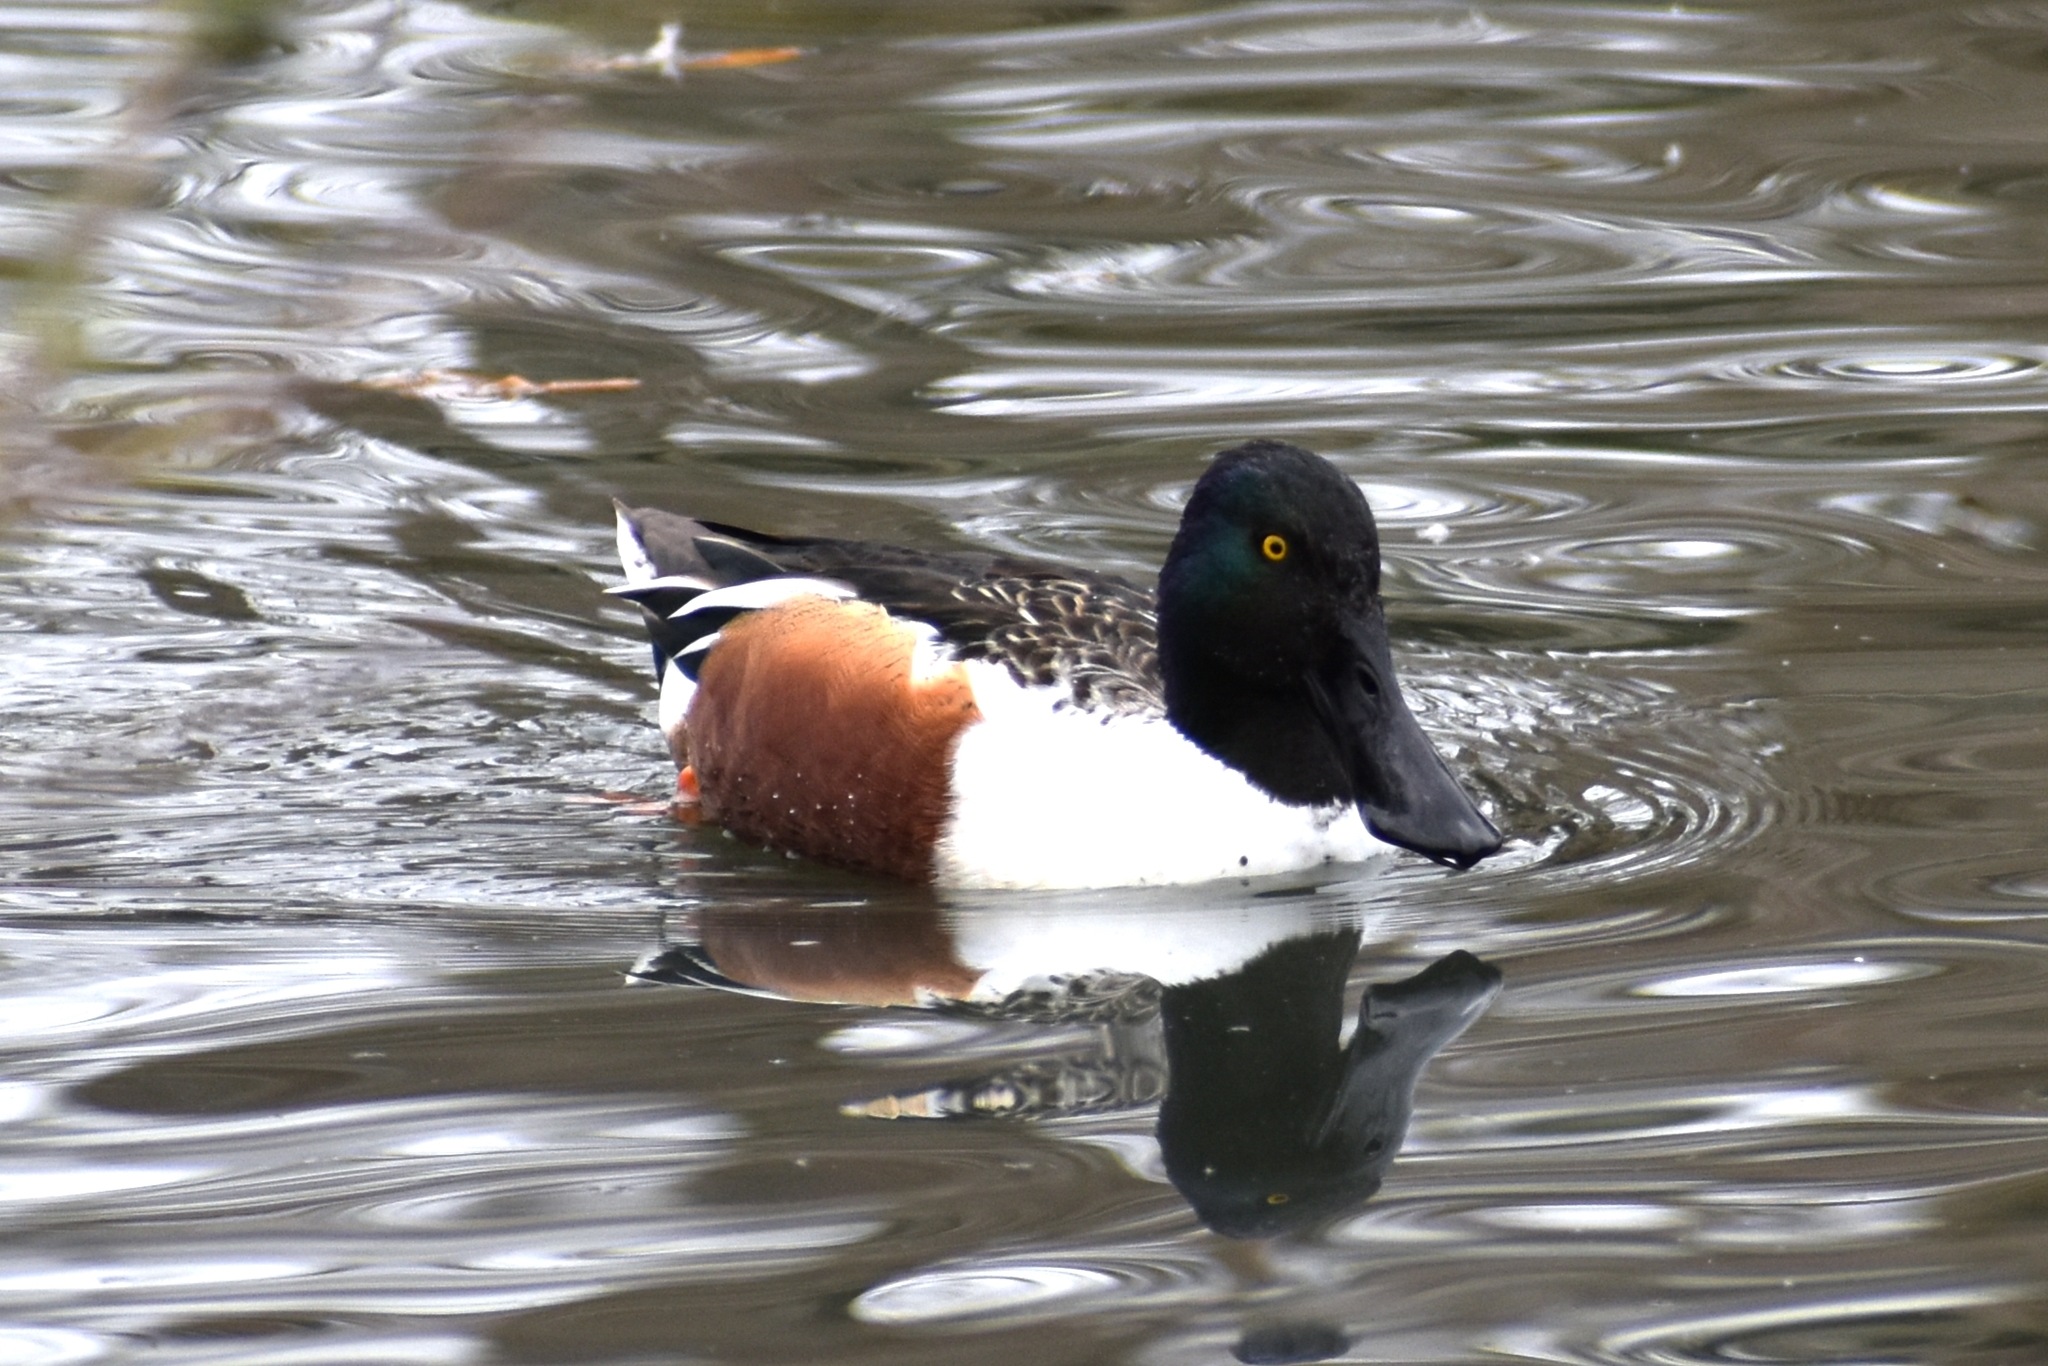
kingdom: Animalia
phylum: Chordata
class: Aves
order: Anseriformes
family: Anatidae
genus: Spatula
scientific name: Spatula clypeata
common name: Northern shoveler
